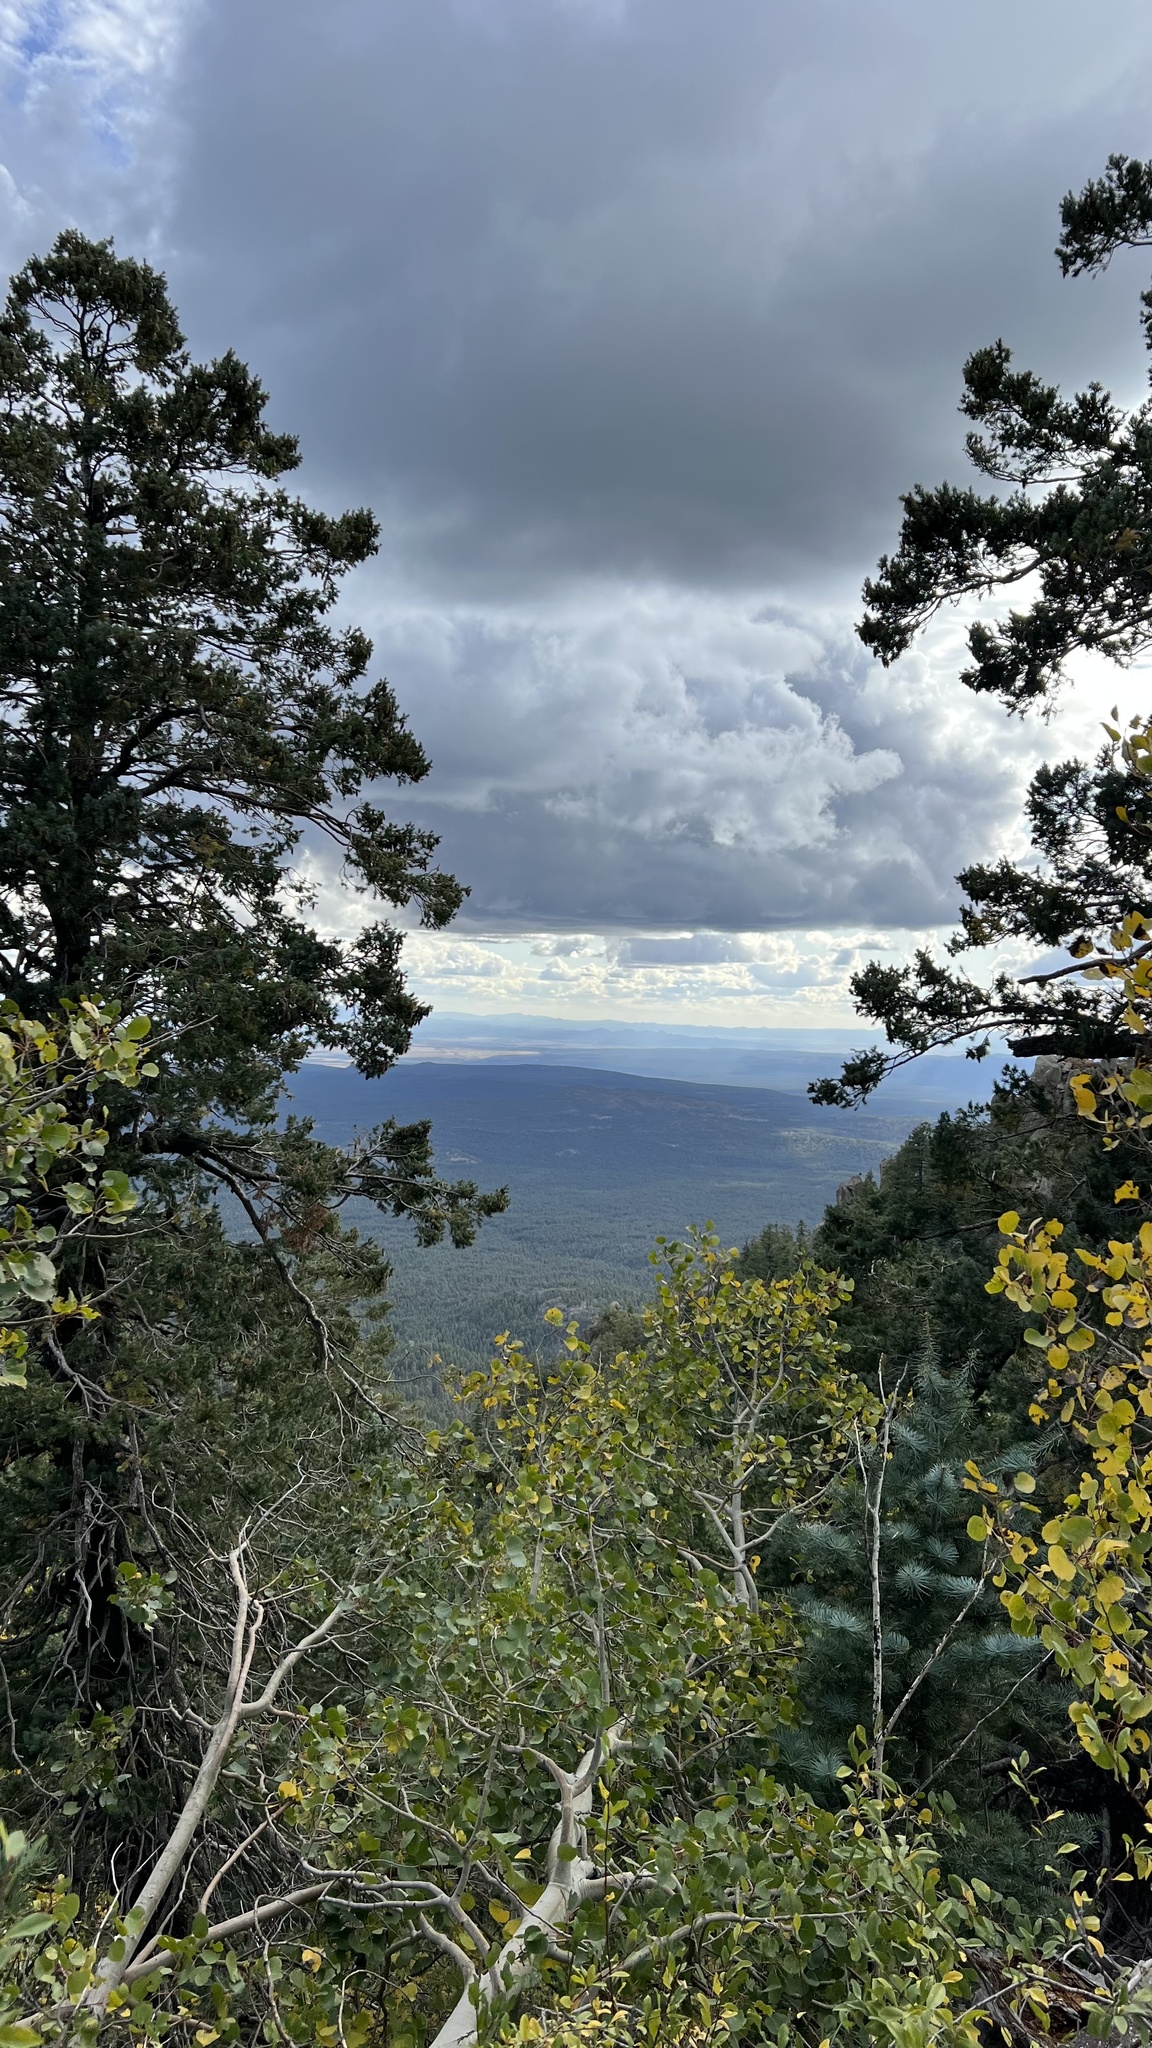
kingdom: Plantae
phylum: Tracheophyta
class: Magnoliopsida
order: Malpighiales
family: Salicaceae
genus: Populus
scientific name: Populus tremuloides
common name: Quaking aspen
